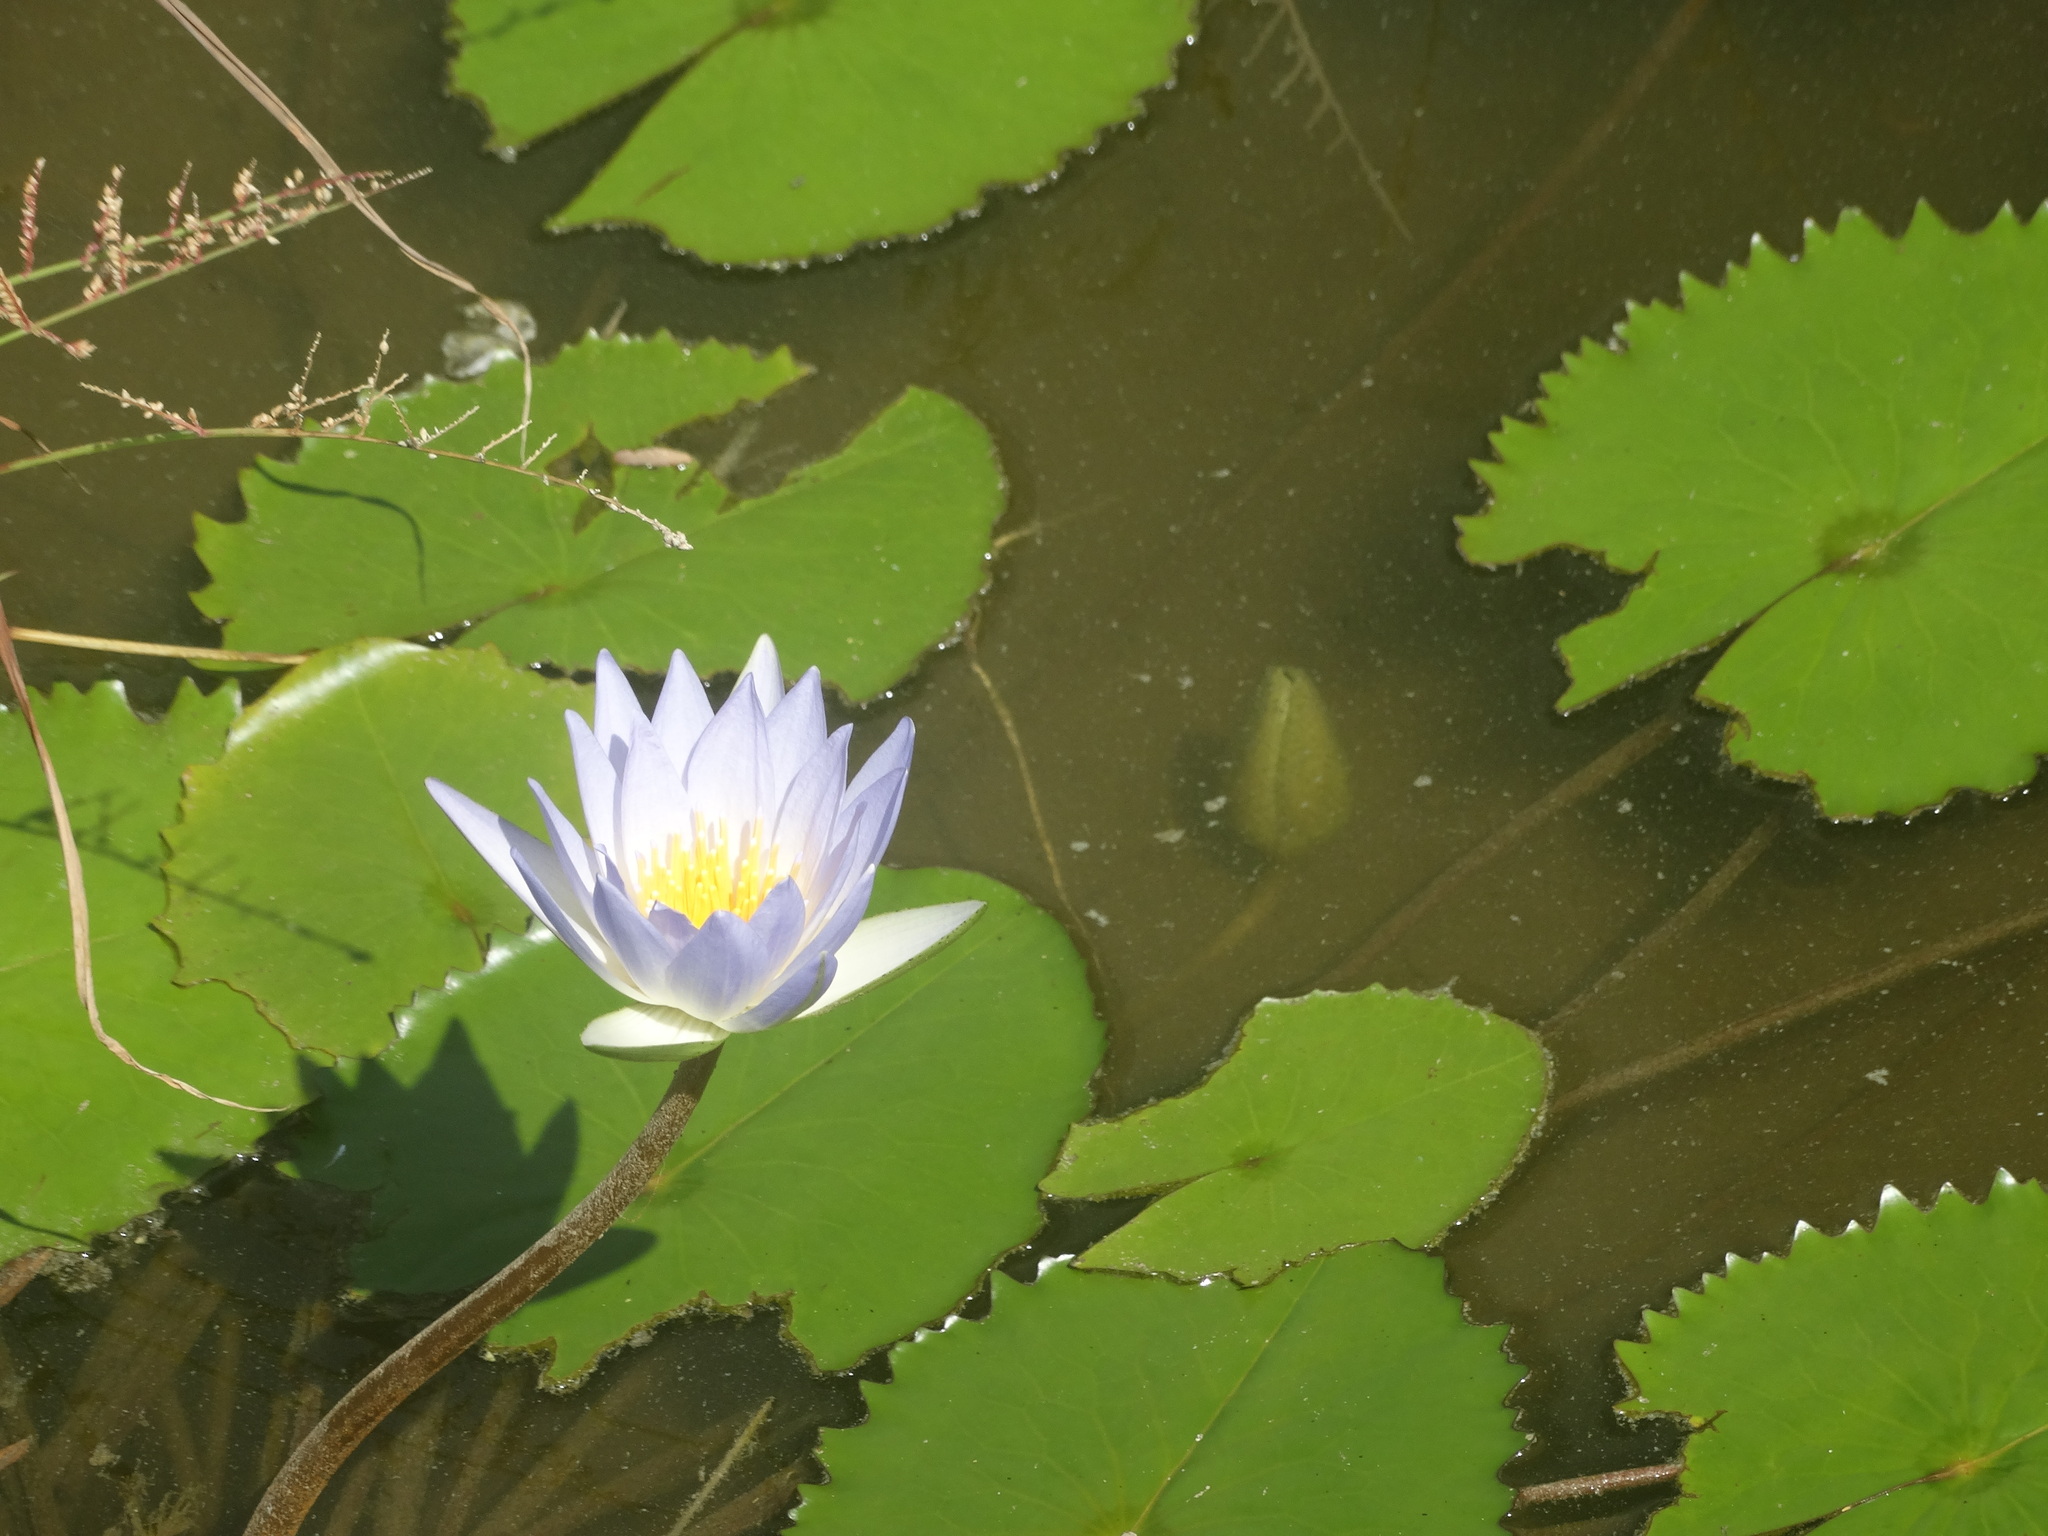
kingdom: Plantae
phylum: Tracheophyta
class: Magnoliopsida
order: Nymphaeales
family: Nymphaeaceae
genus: Nymphaea
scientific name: Nymphaea elegans
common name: Blue water-lily
